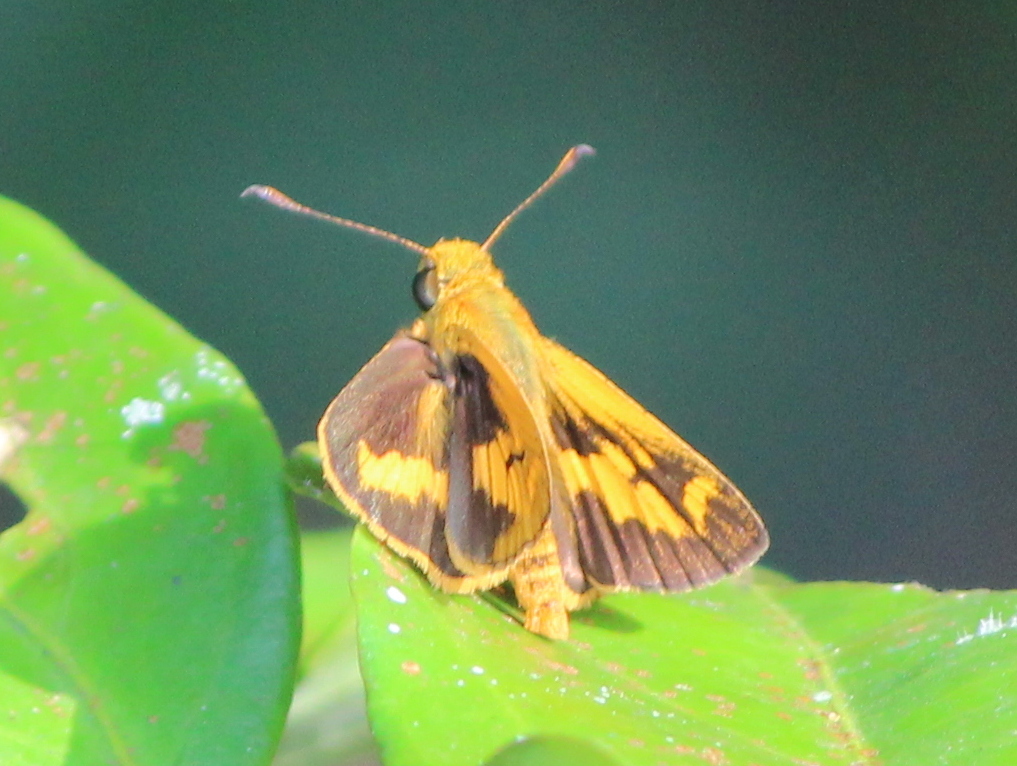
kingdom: Animalia
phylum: Arthropoda
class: Insecta
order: Lepidoptera
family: Hesperiidae
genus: Oriens
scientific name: Oriens goloides
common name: Smaller dartlet
